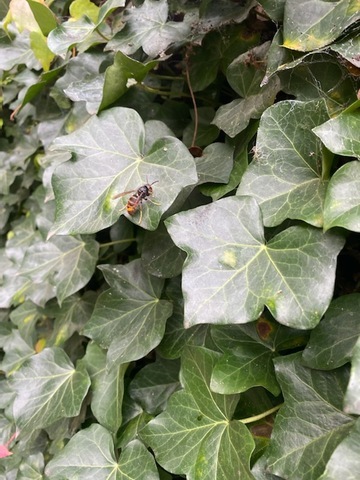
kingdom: Animalia
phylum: Arthropoda
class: Insecta
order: Hymenoptera
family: Vespidae
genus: Vespa
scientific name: Vespa velutina
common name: Asian hornet
